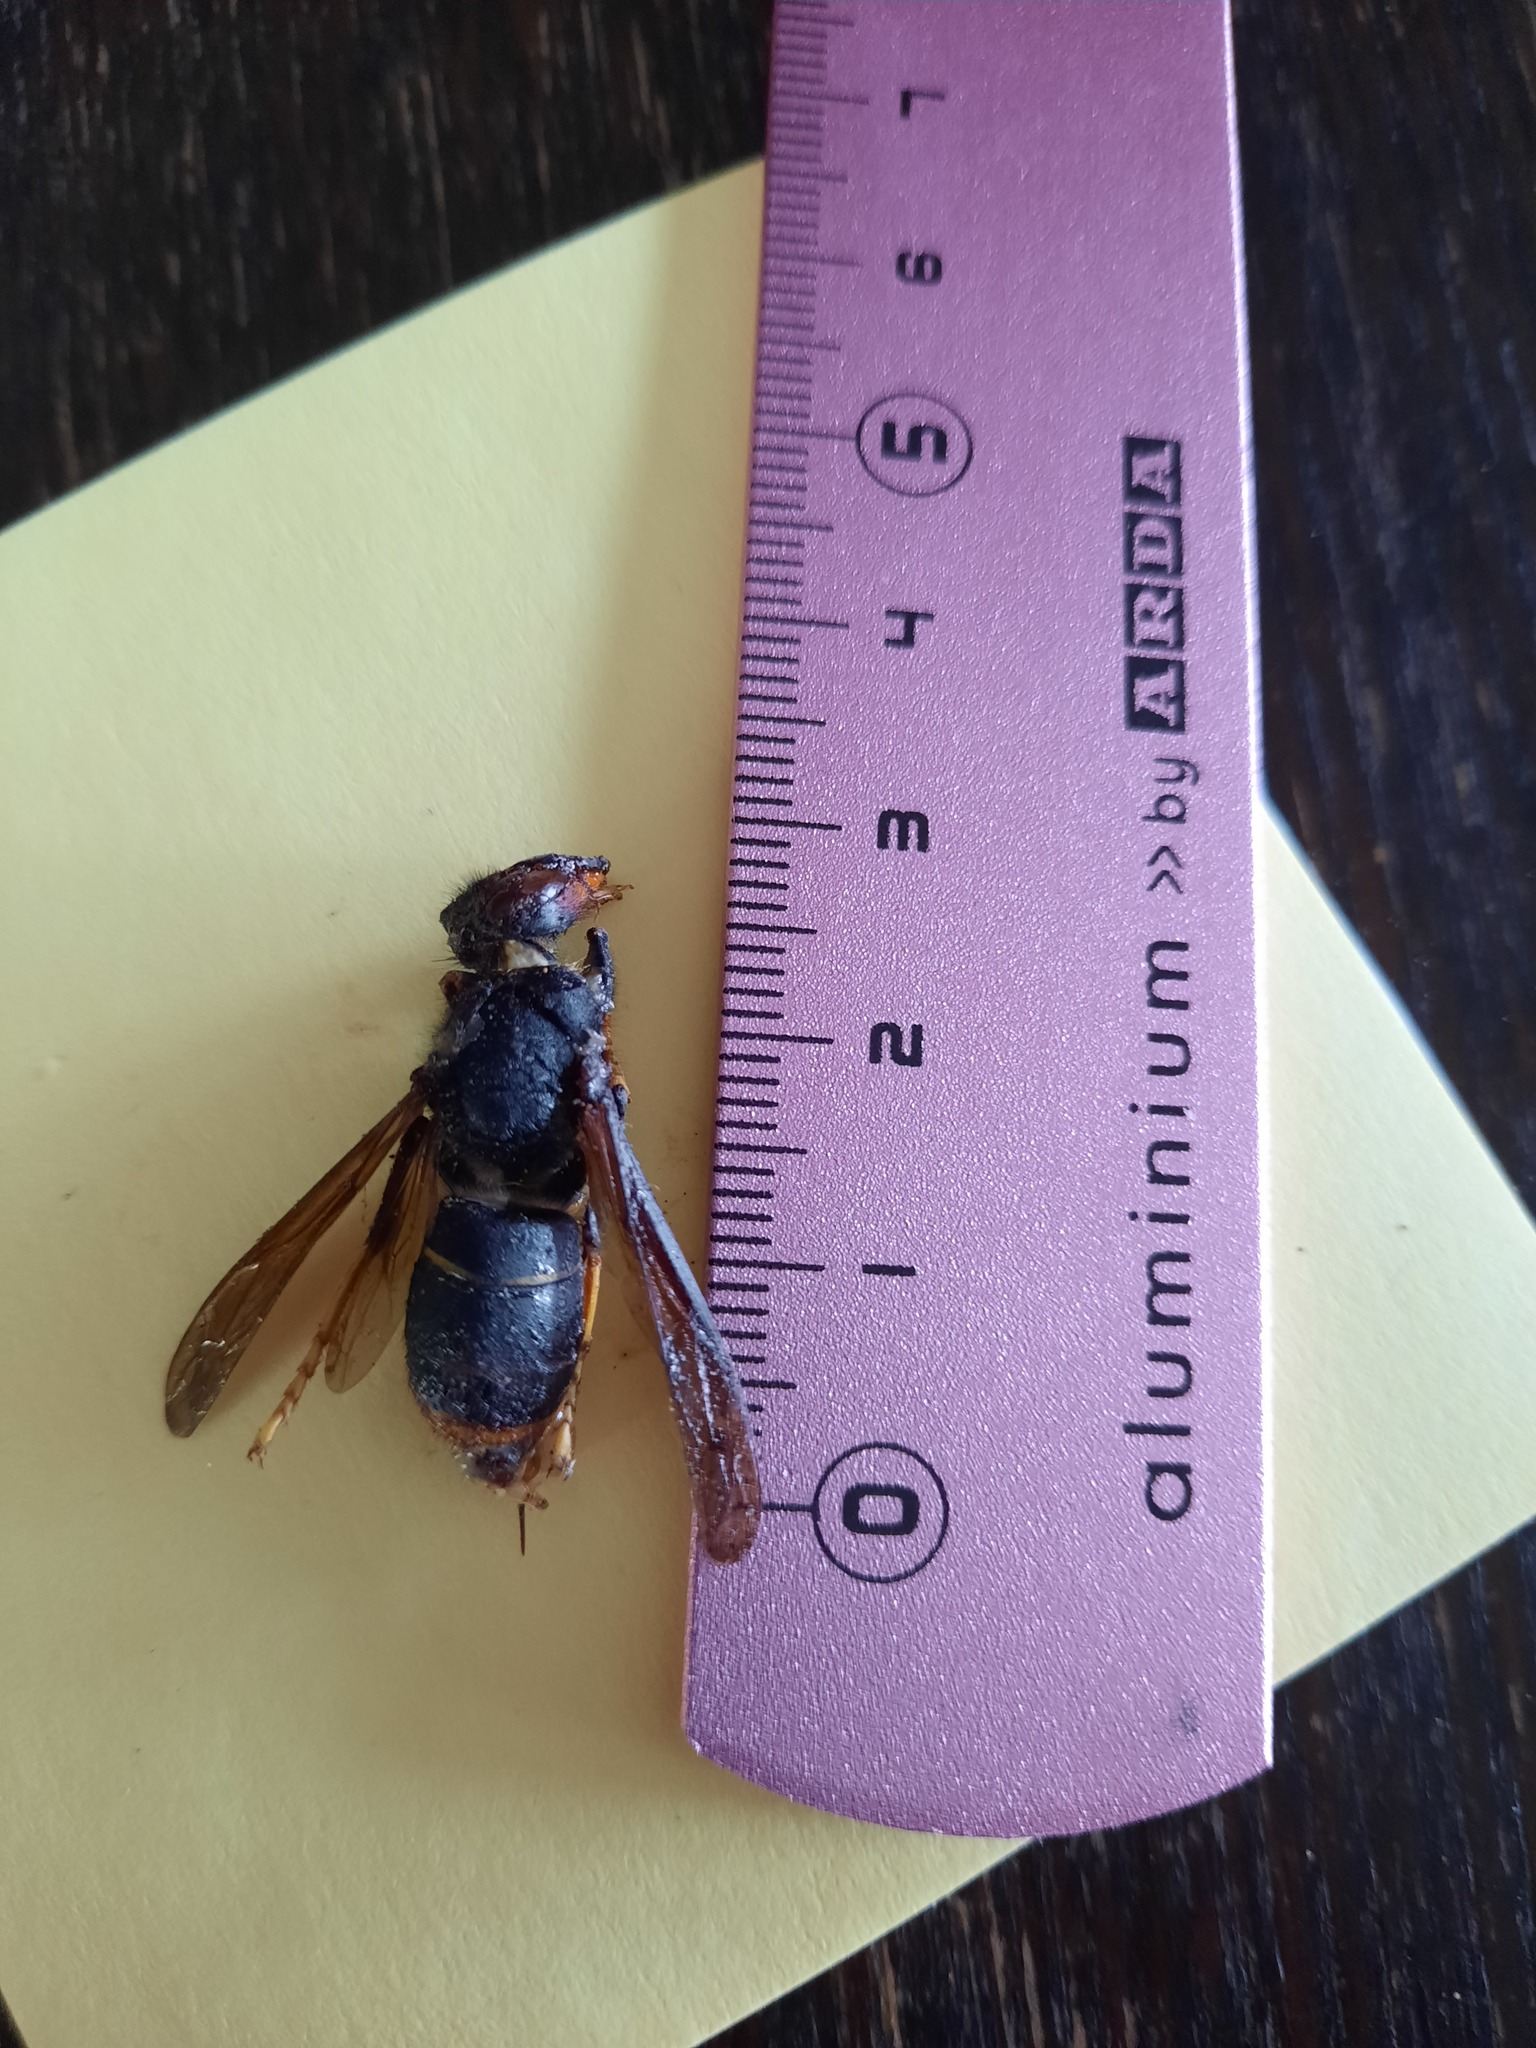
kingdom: Animalia
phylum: Arthropoda
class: Insecta
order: Hymenoptera
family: Vespidae
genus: Vespa
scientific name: Vespa velutina
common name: Asian hornet
